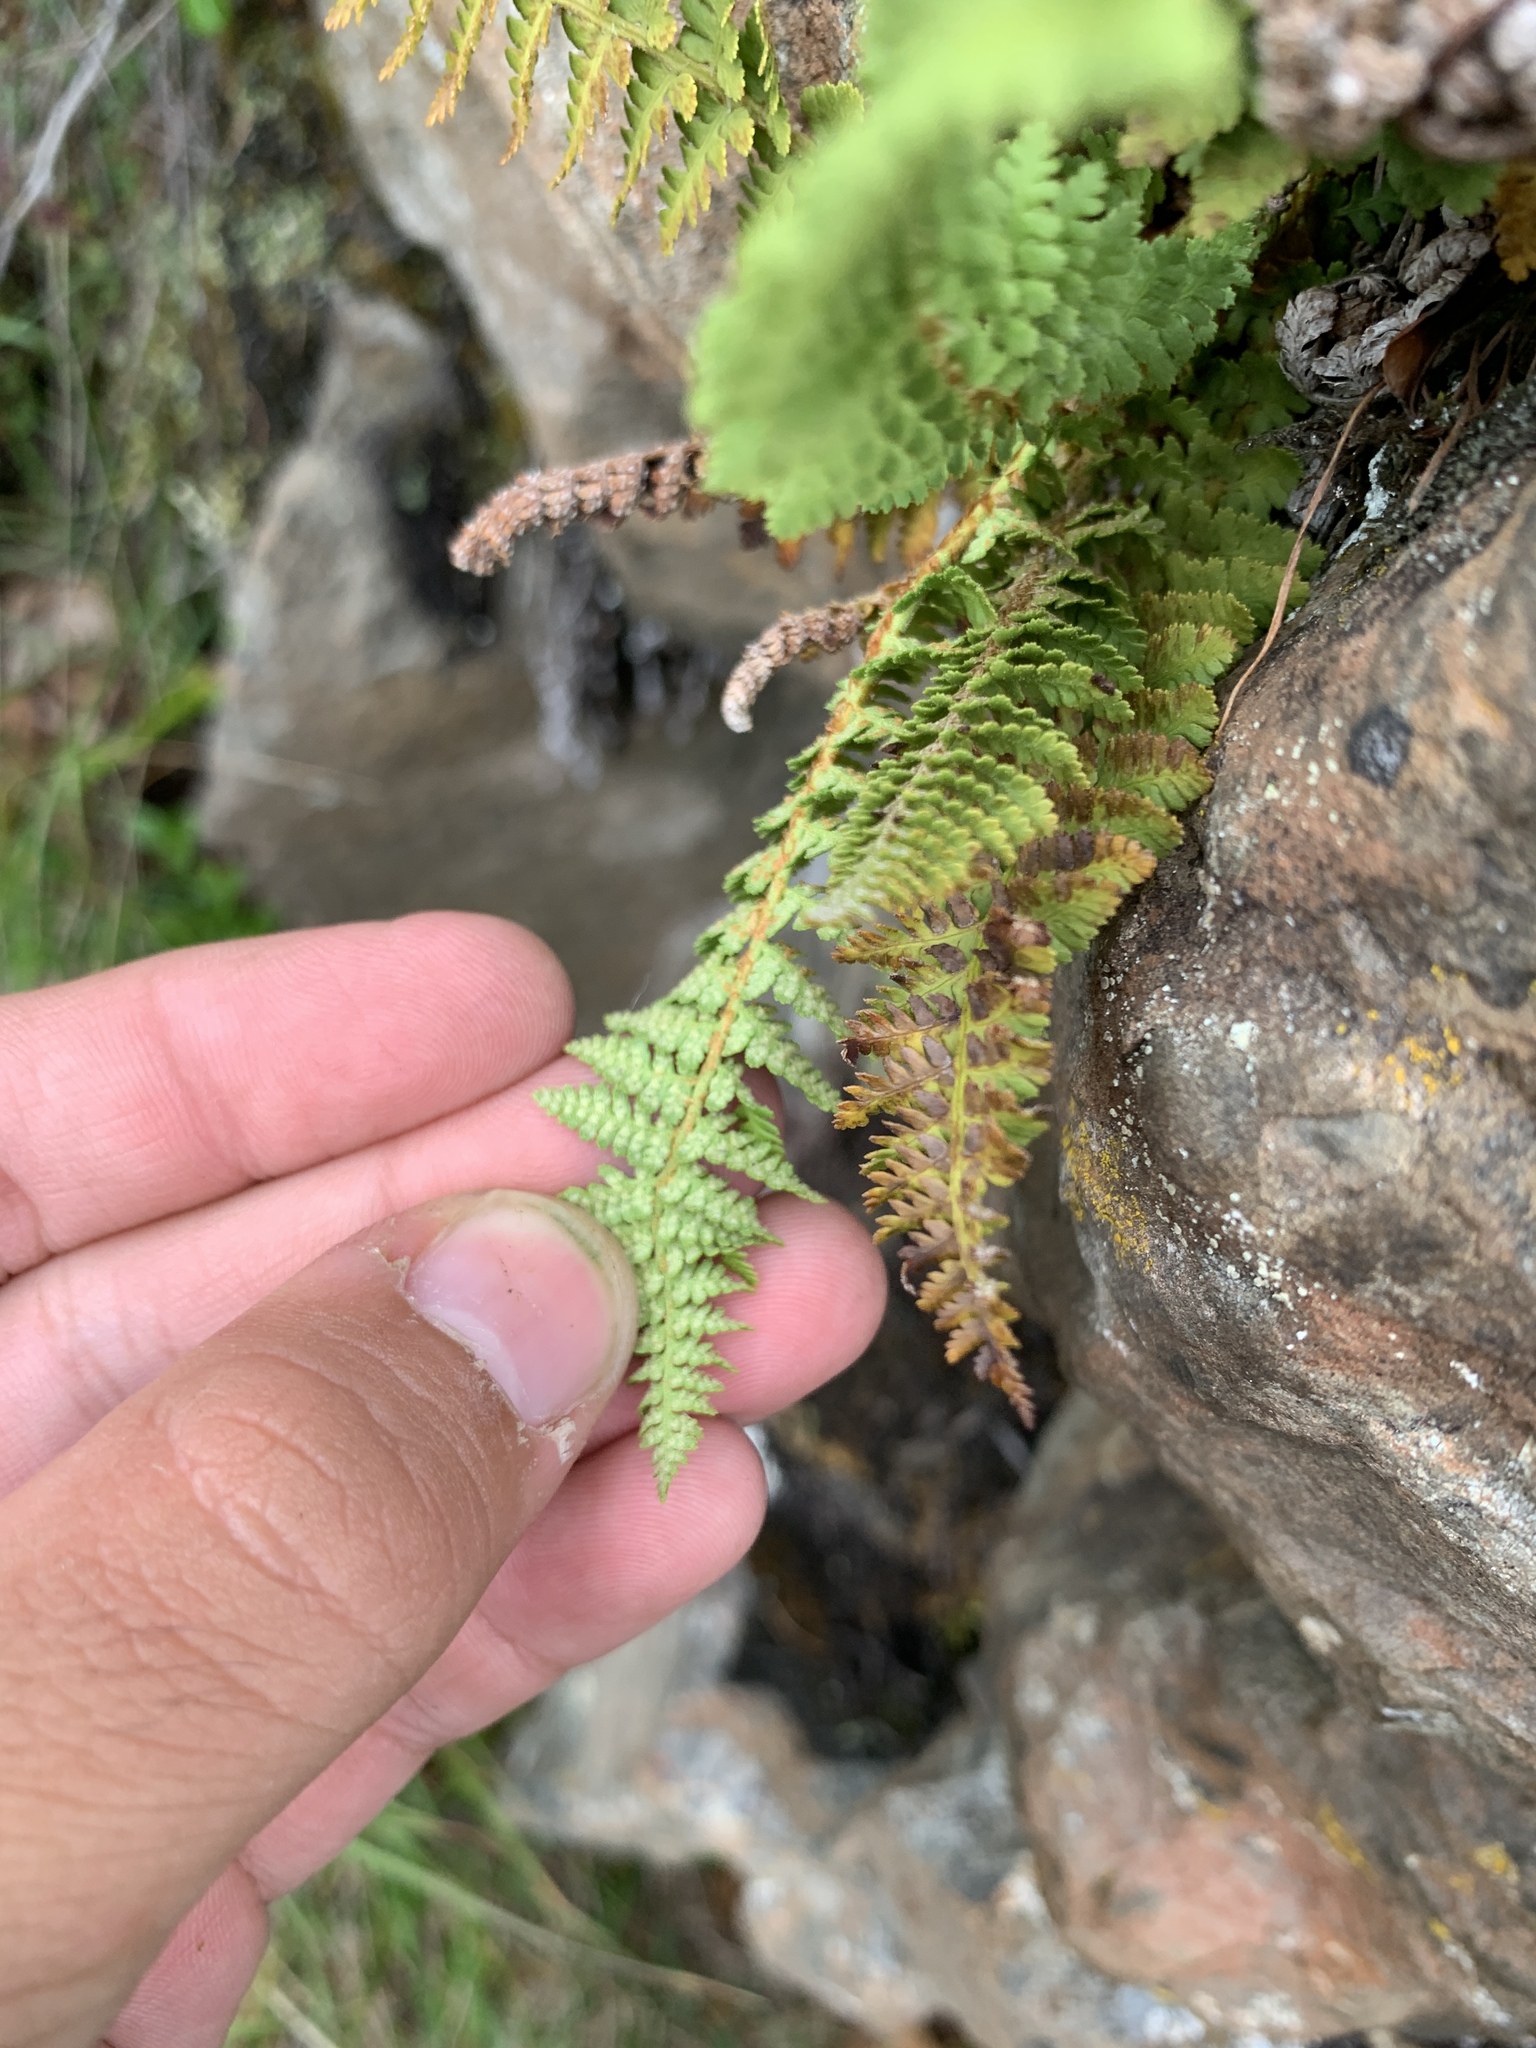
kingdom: Plantae
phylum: Tracheophyta
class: Polypodiopsida
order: Polypodiales
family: Dryopteridaceae
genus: Dryopteris
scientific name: Dryopteris fragrans
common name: Fragrant wood fern
